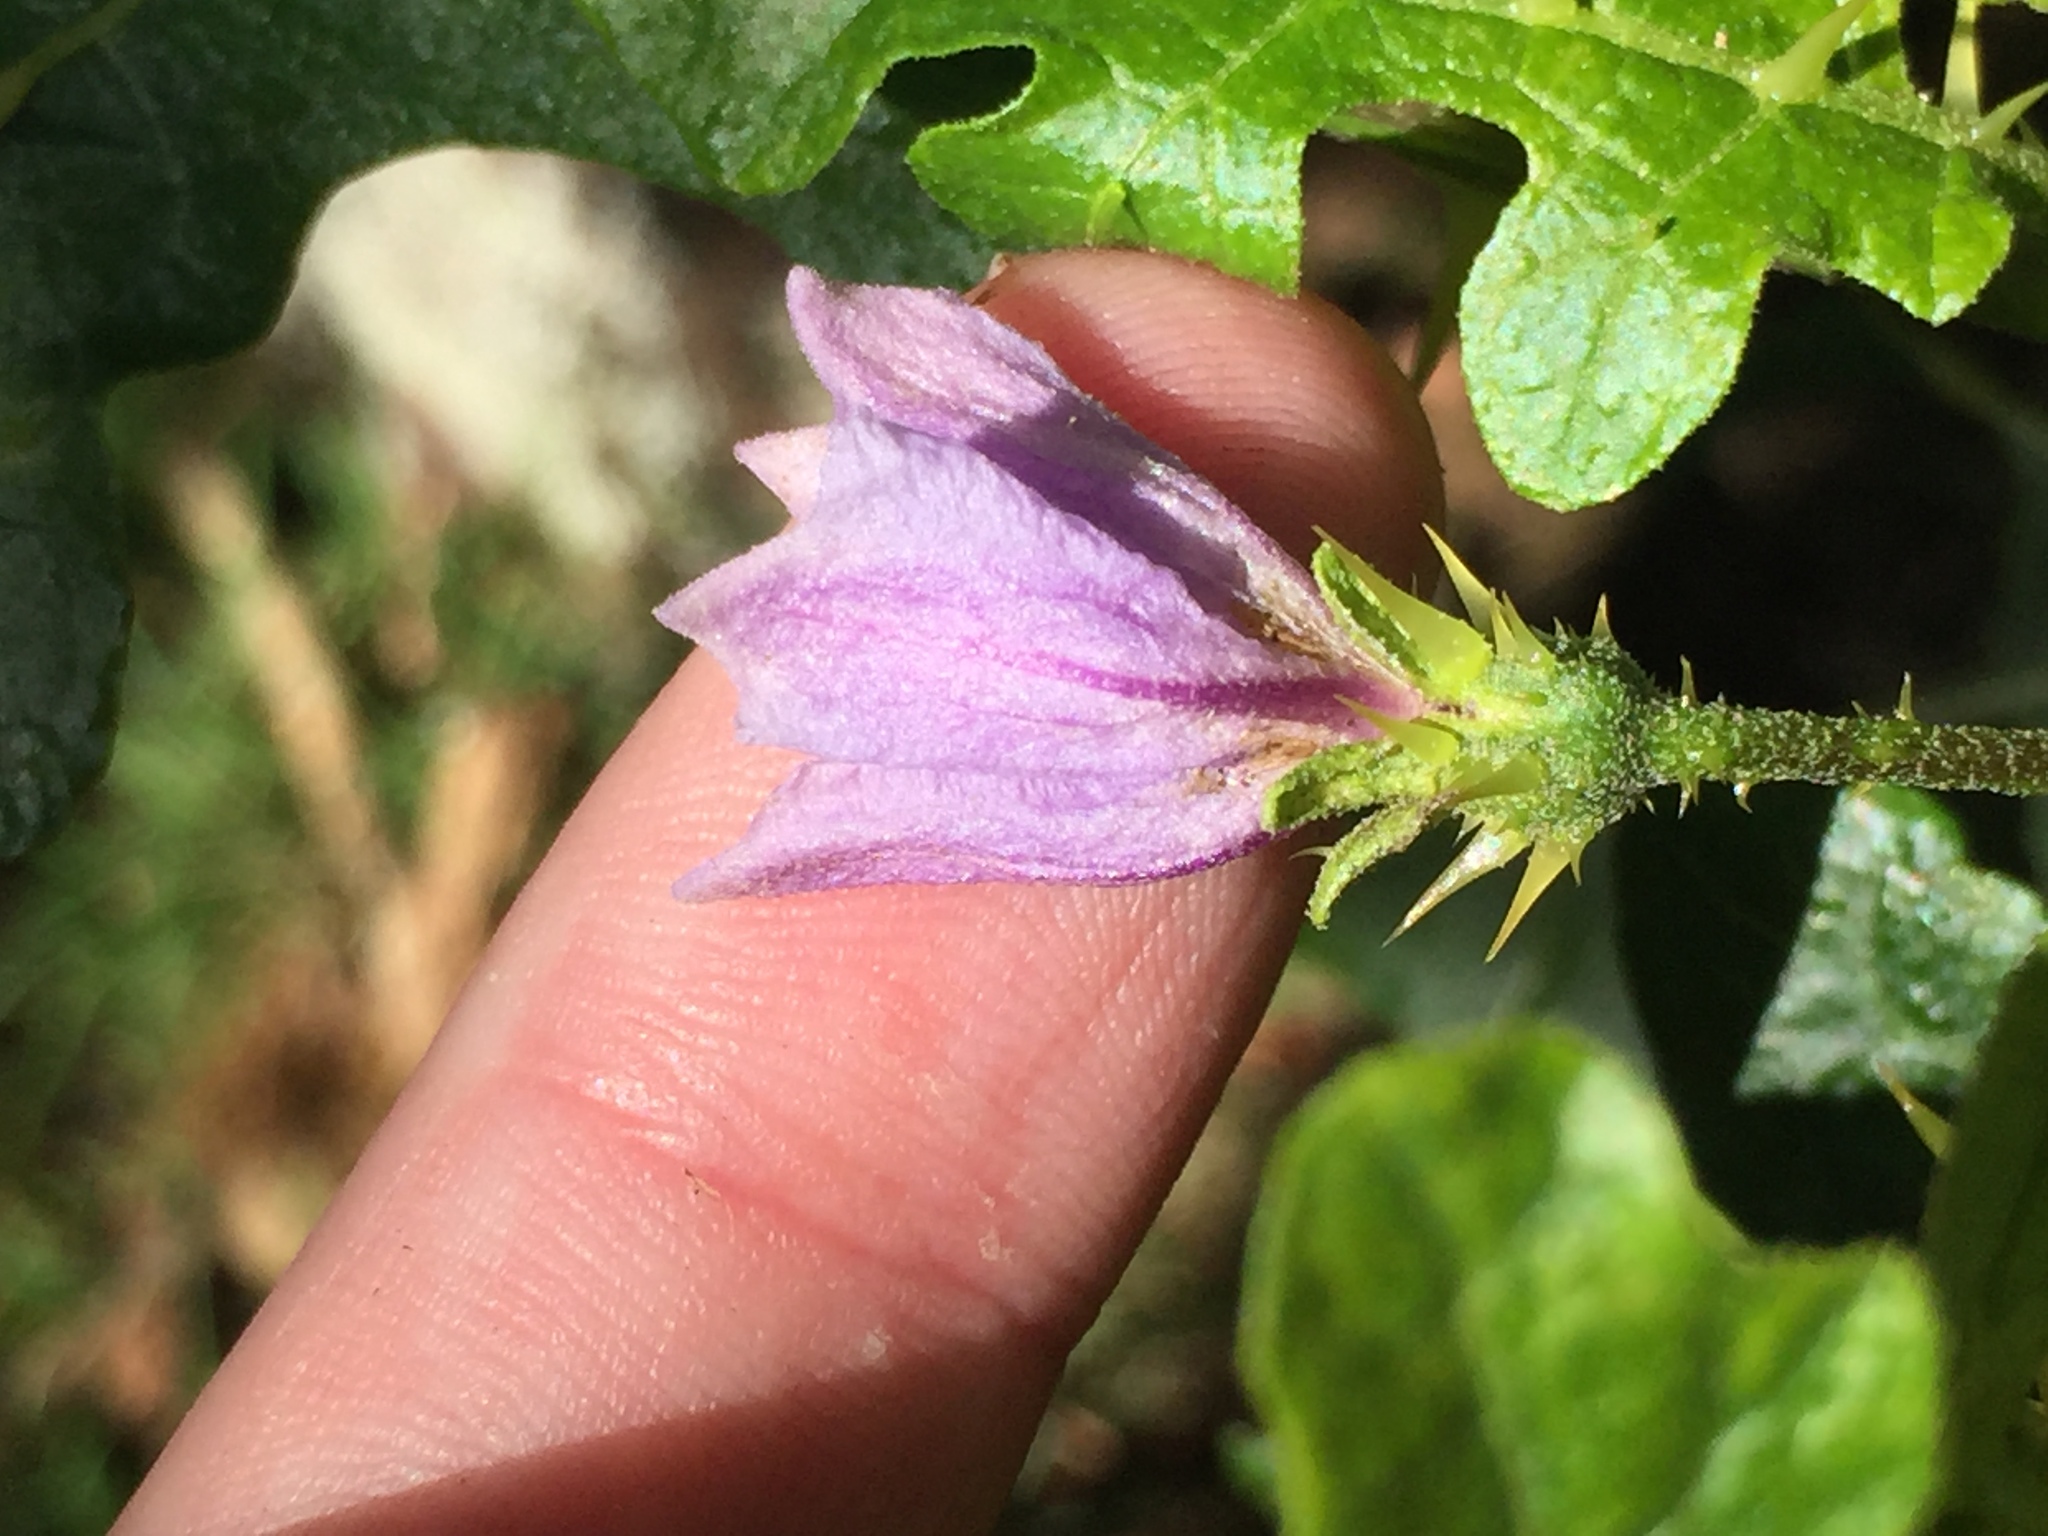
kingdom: Plantae
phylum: Tracheophyta
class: Magnoliopsida
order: Solanales
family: Solanaceae
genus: Solanum
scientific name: Solanum linnaeanum
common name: Nightshade
